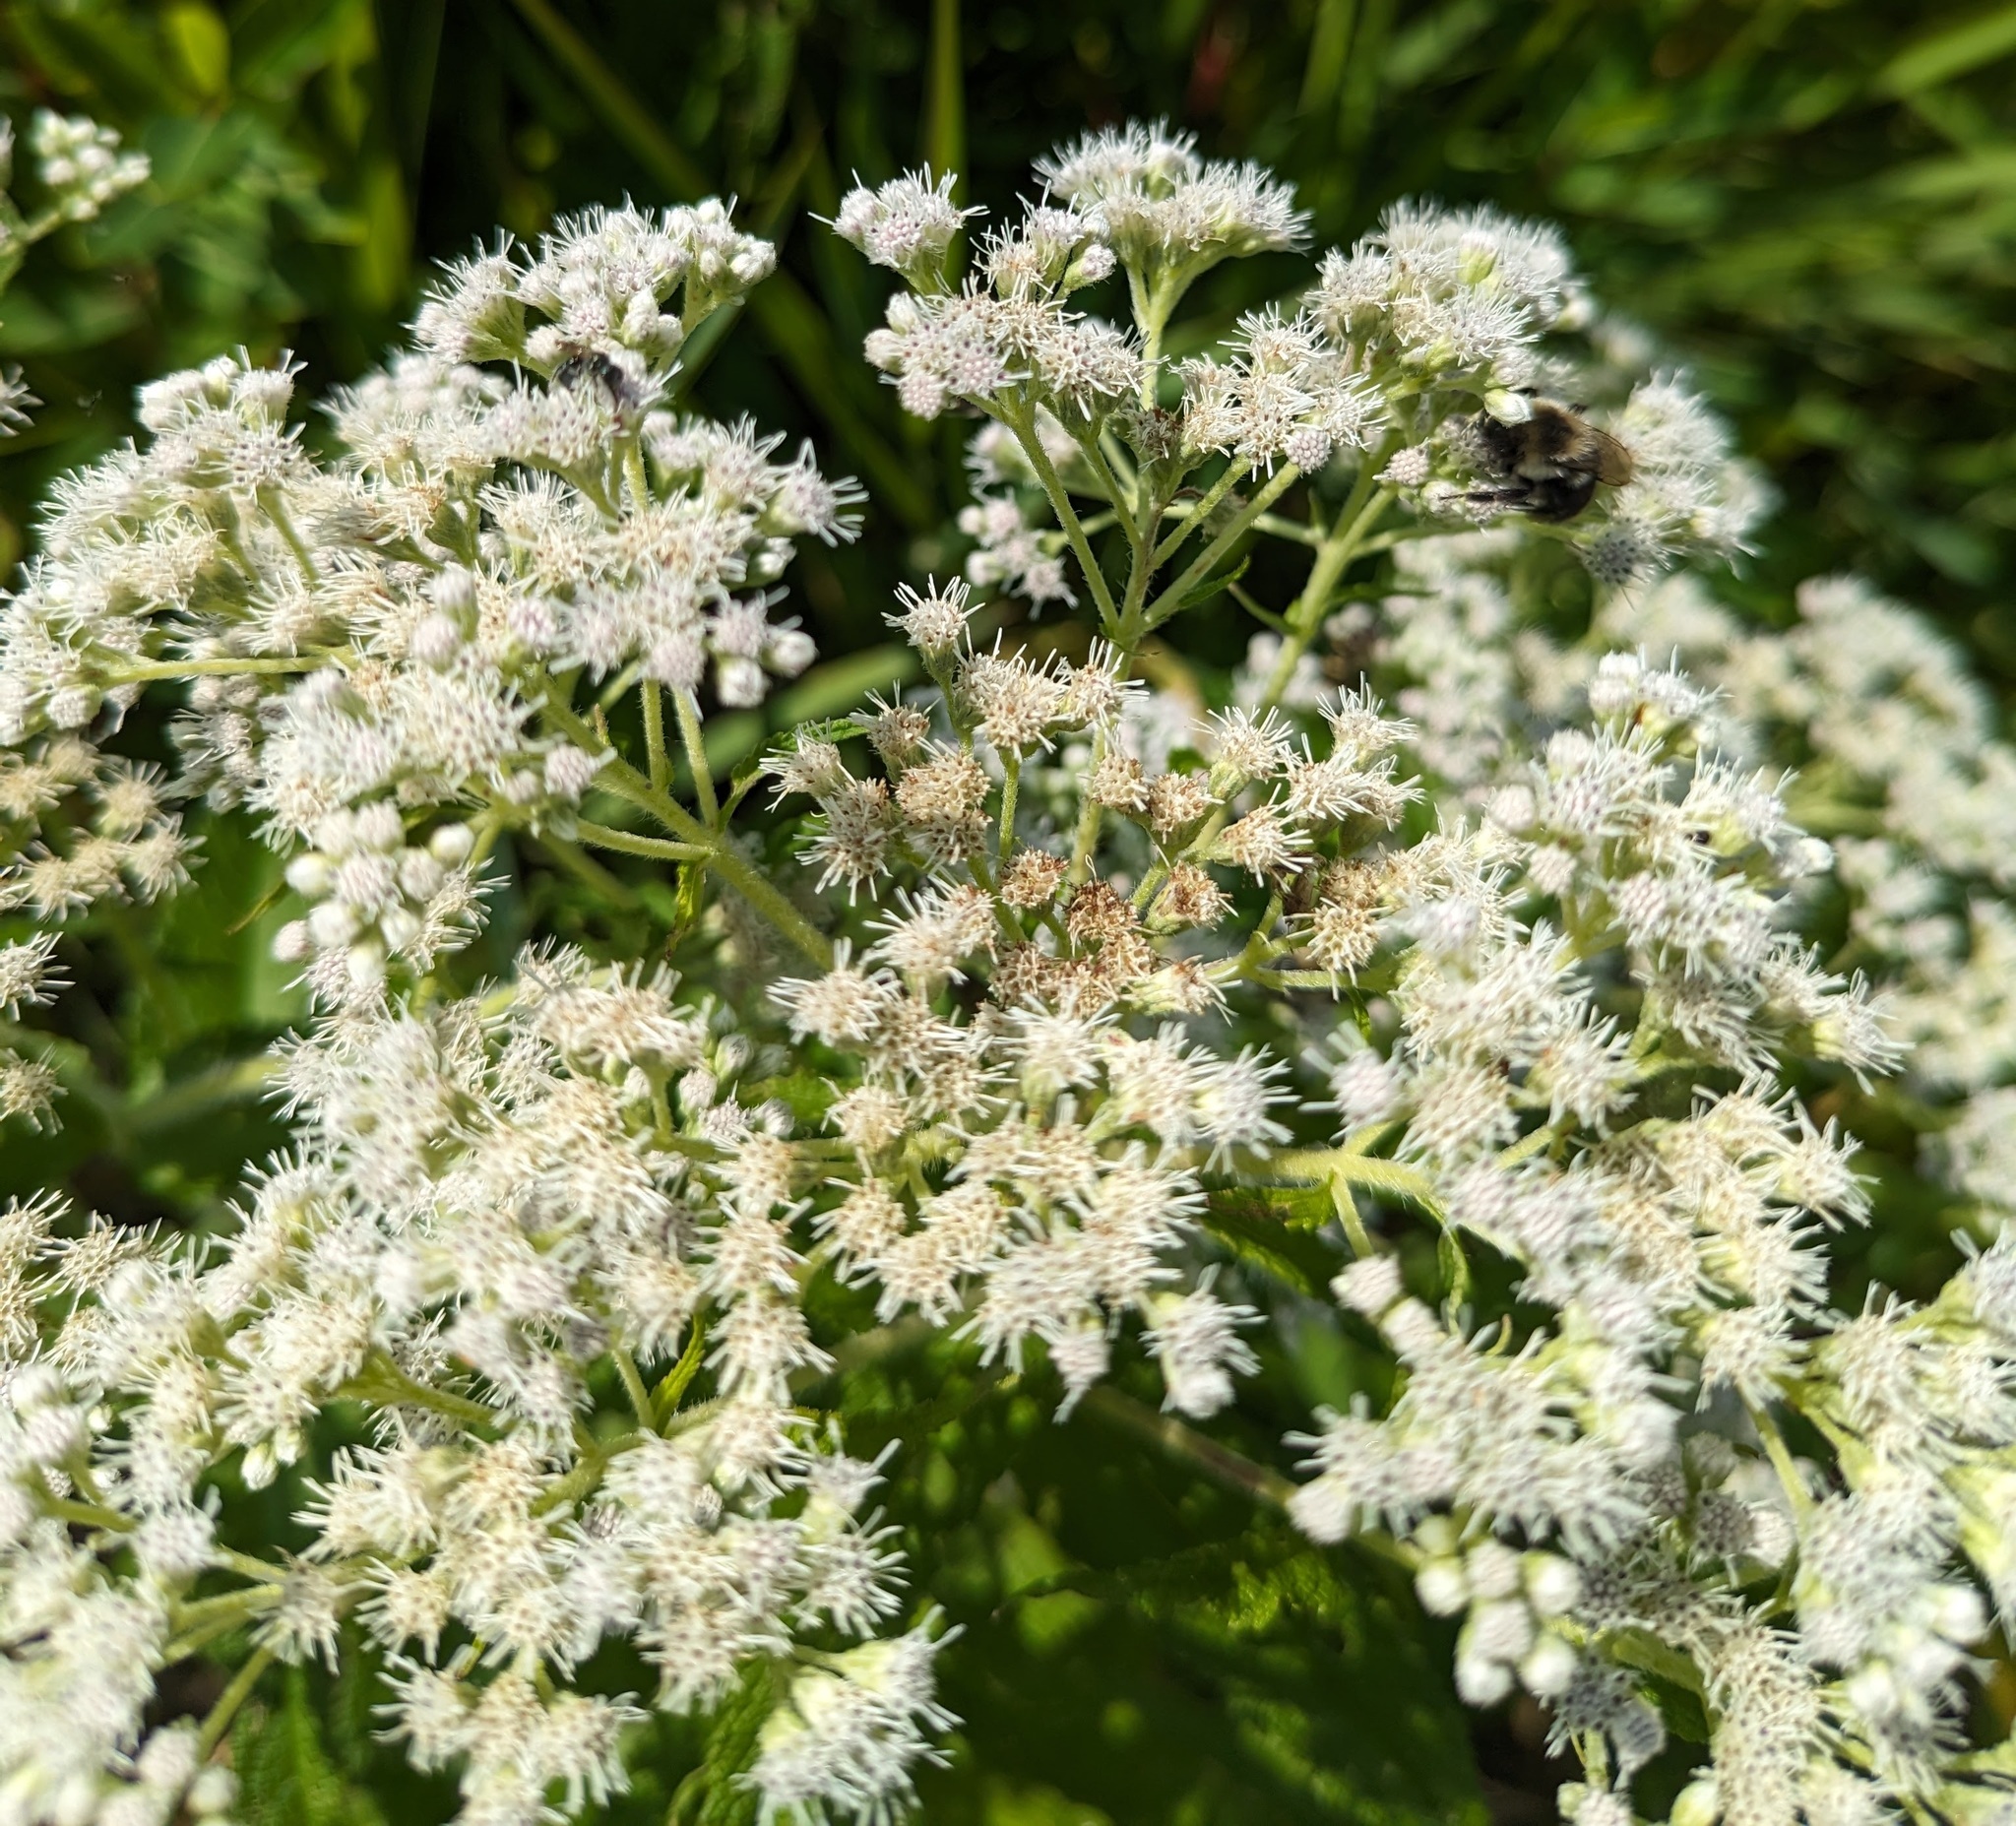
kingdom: Plantae
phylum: Tracheophyta
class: Magnoliopsida
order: Asterales
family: Asteraceae
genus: Eupatorium
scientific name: Eupatorium perfoliatum
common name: Boneset
